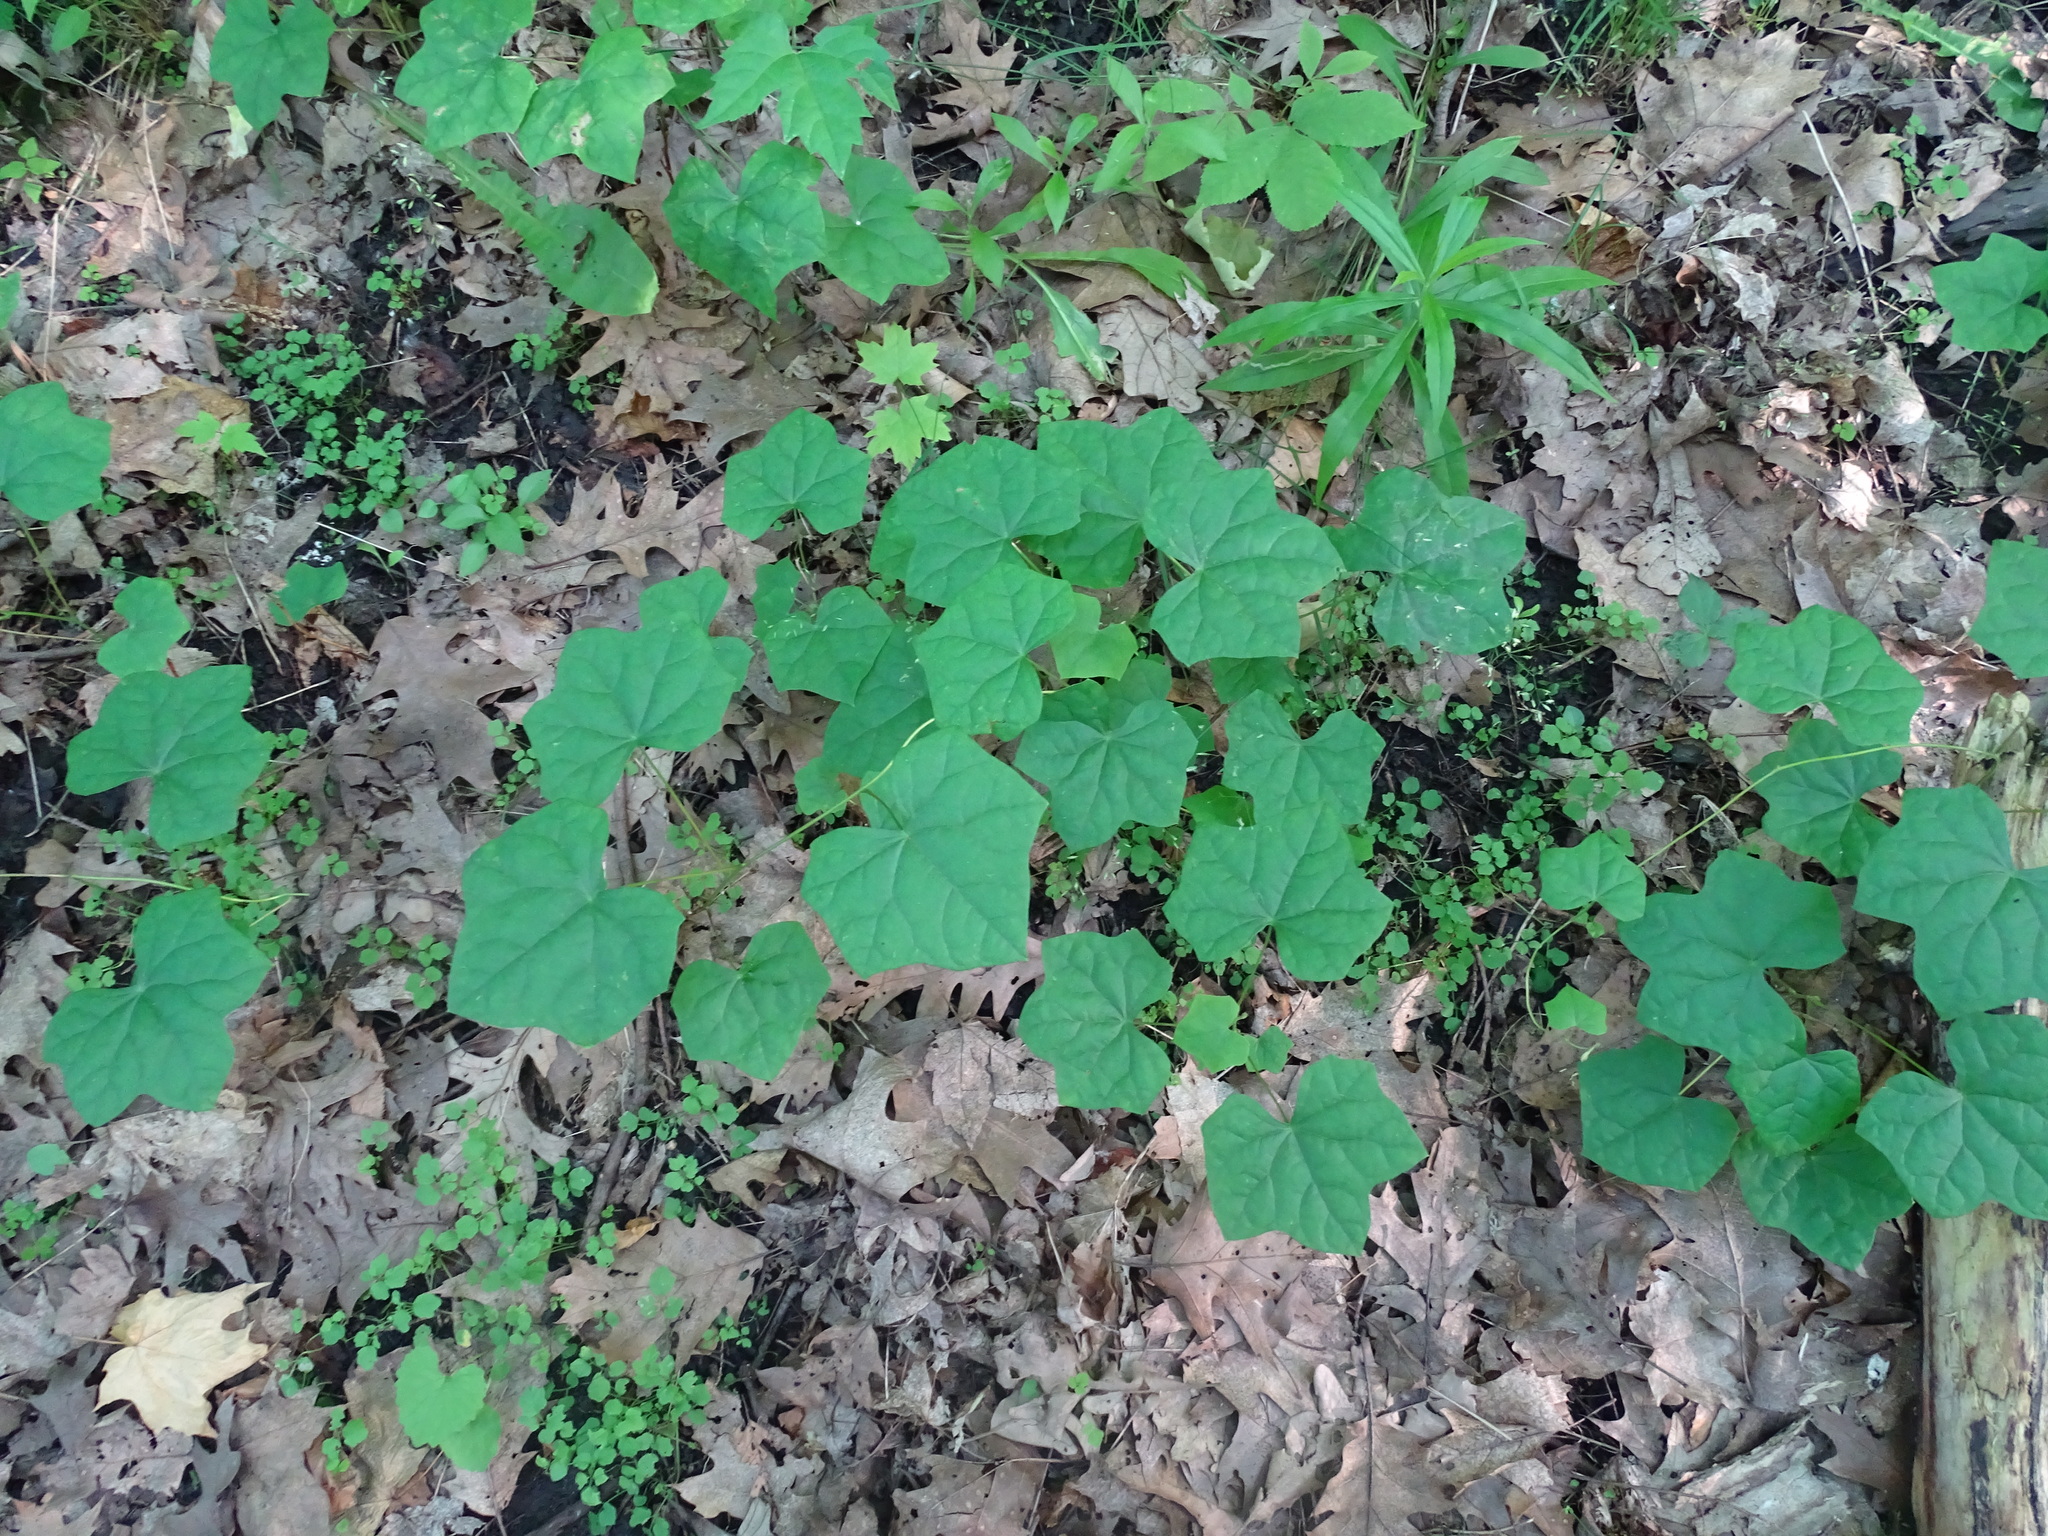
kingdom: Plantae
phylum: Tracheophyta
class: Magnoliopsida
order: Ranunculales
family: Menispermaceae
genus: Menispermum
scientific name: Menispermum canadense
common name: Moonseed
